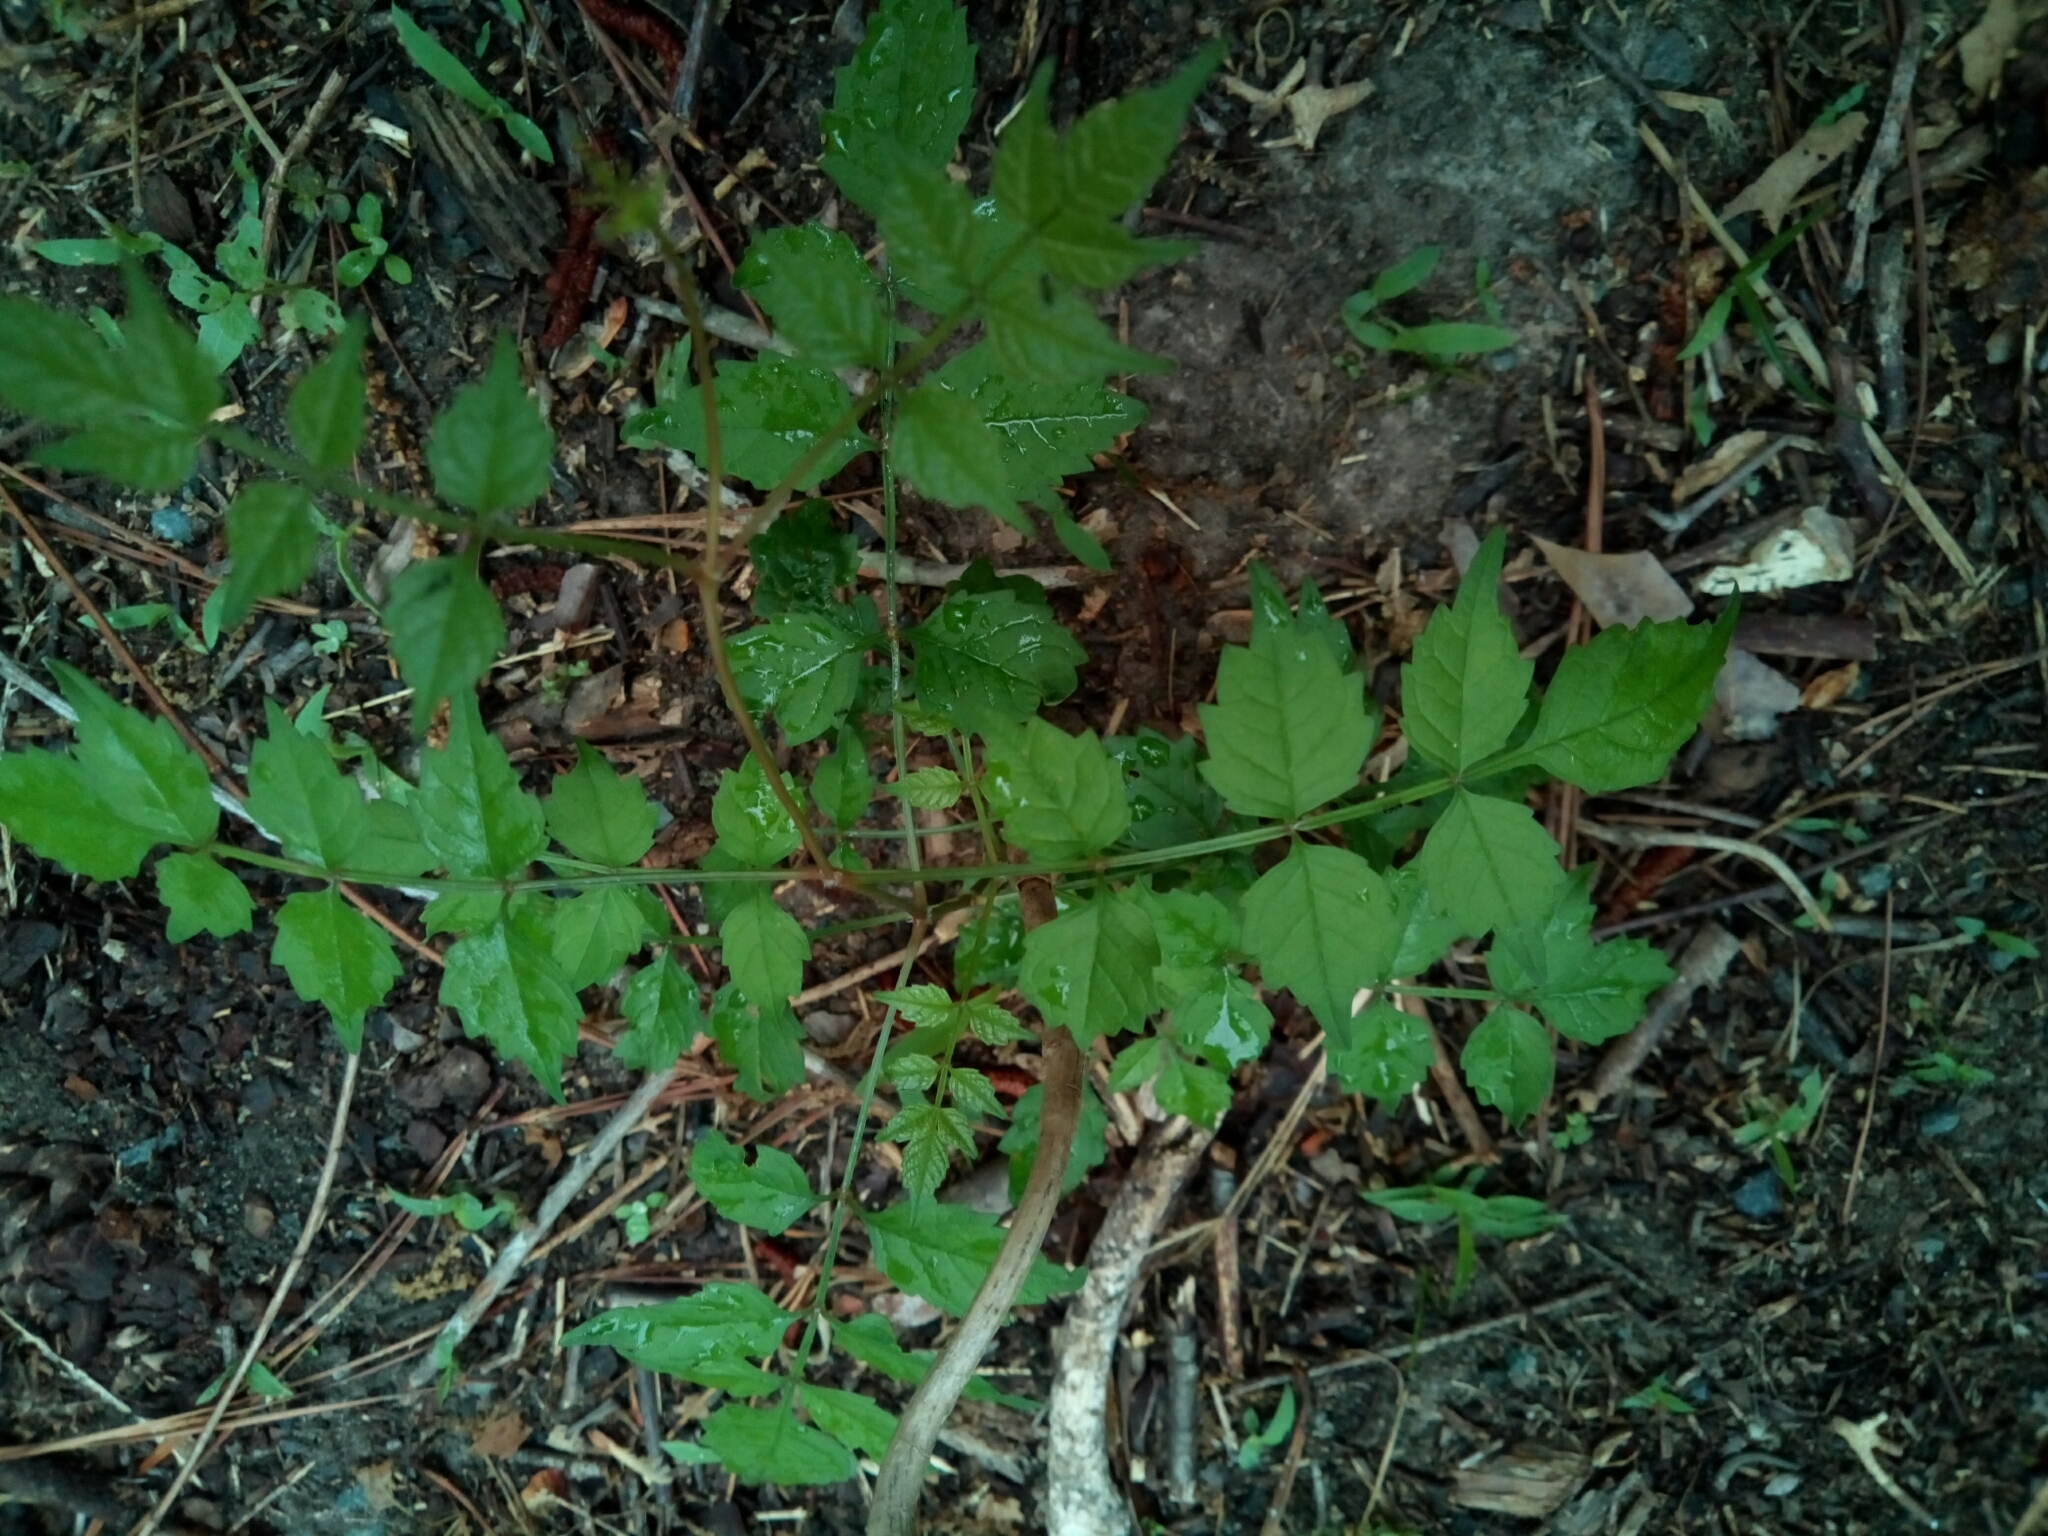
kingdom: Plantae
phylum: Tracheophyta
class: Magnoliopsida
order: Lamiales
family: Bignoniaceae
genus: Campsis
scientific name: Campsis radicans
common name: Trumpet-creeper
